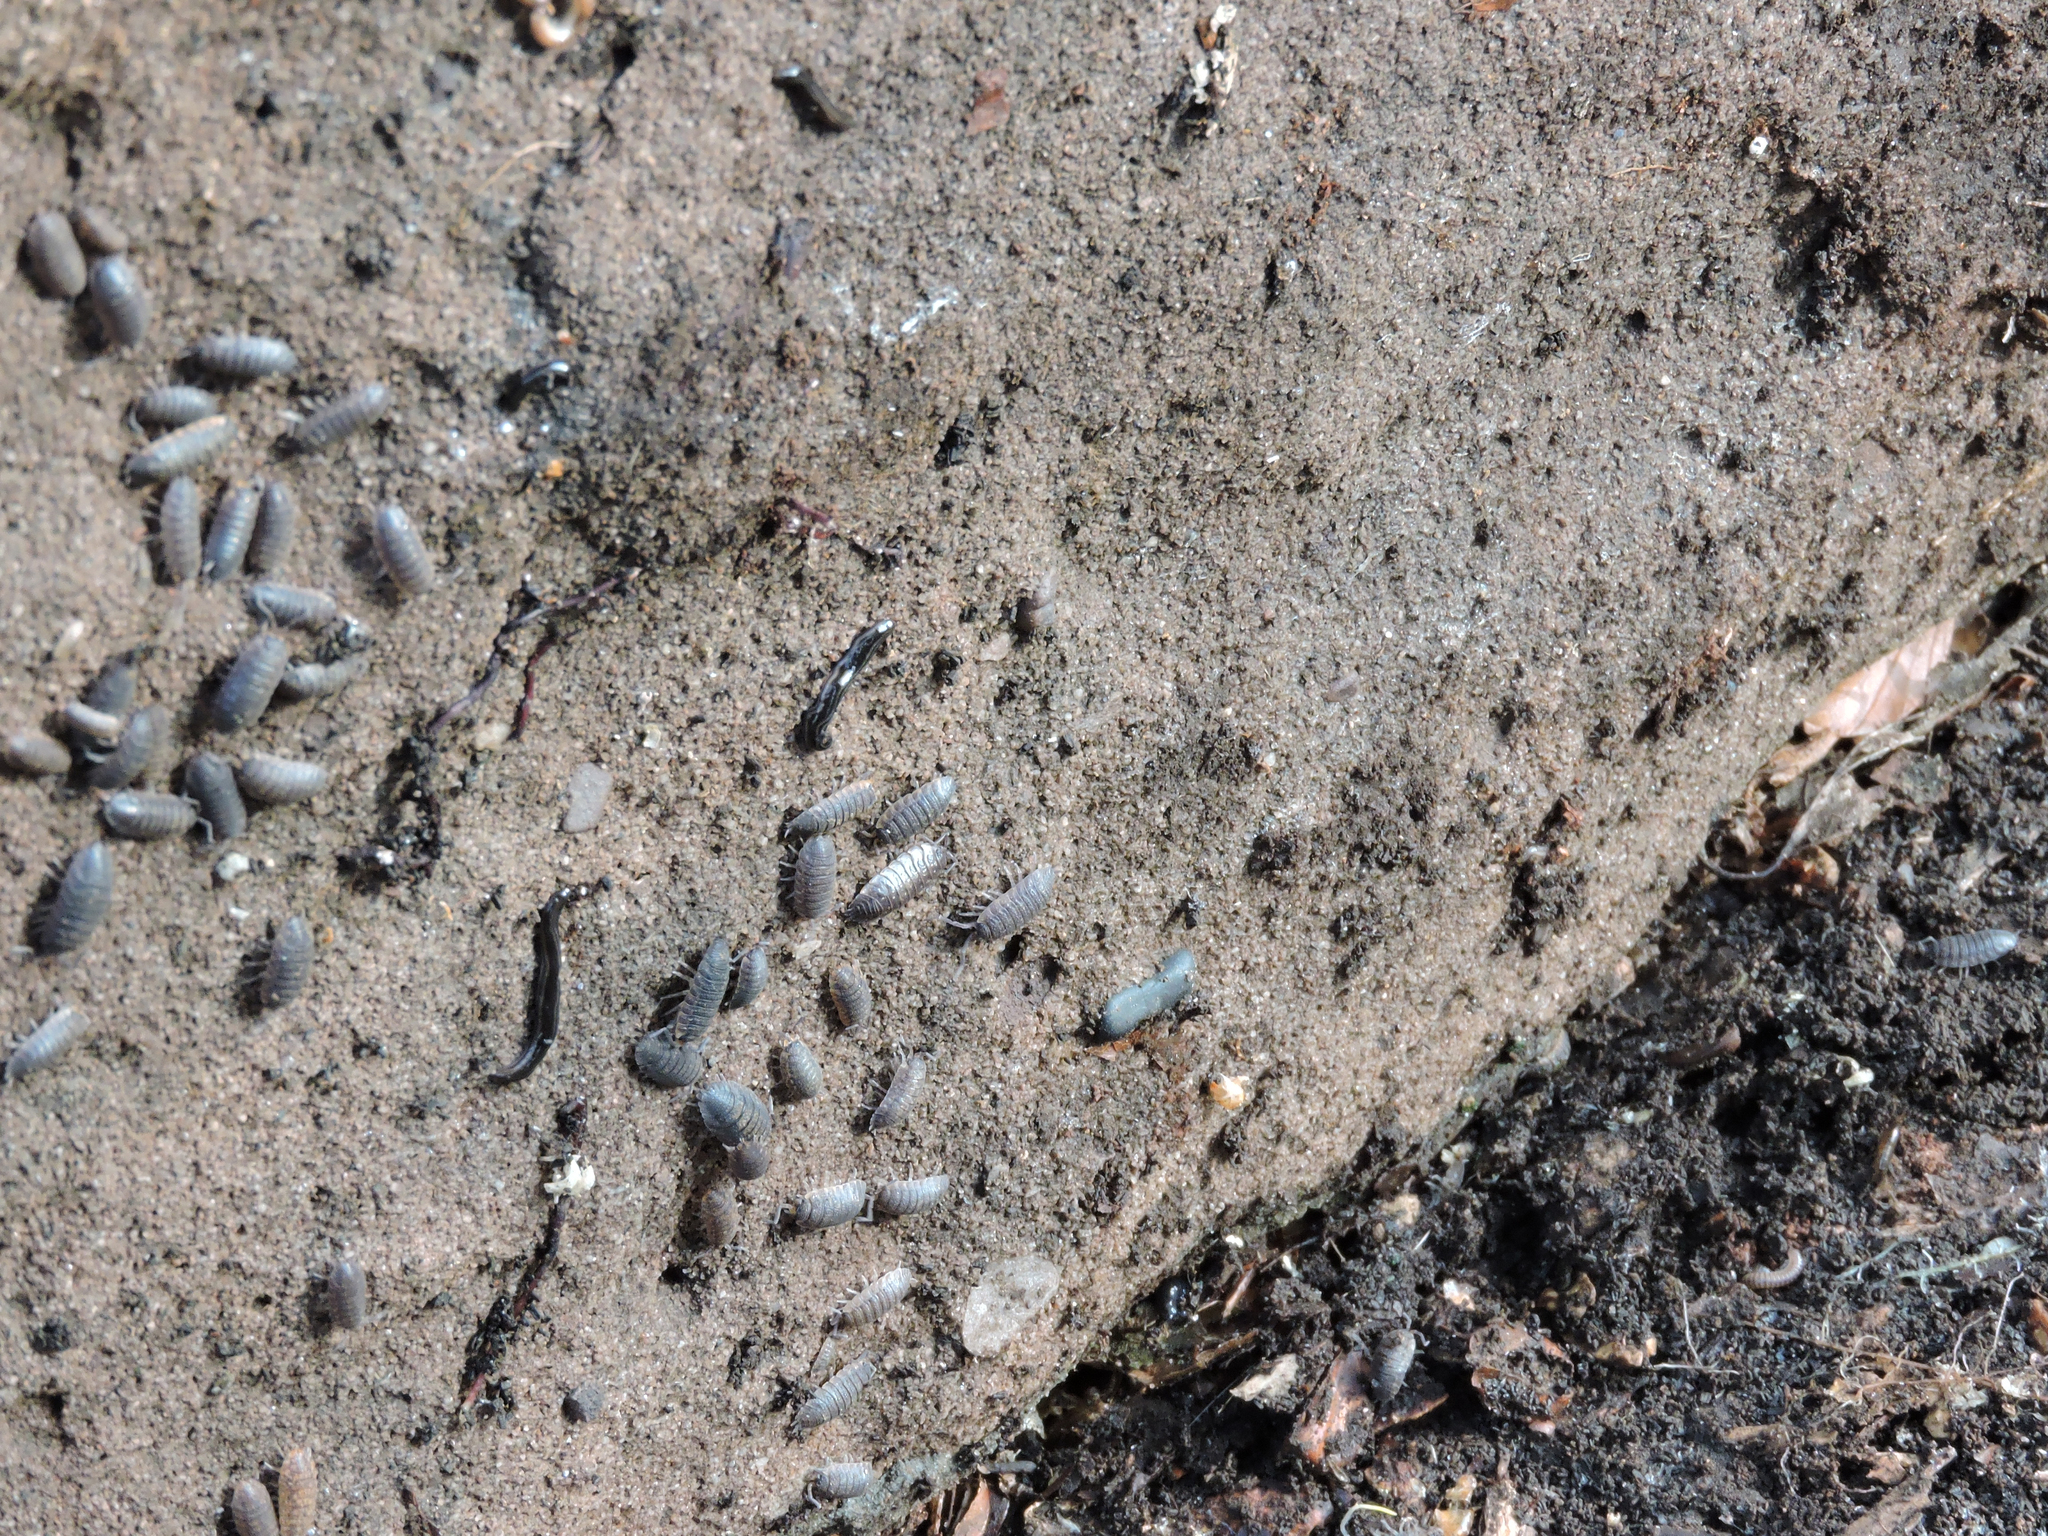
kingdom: Animalia
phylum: Arthropoda
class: Malacostraca
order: Isopoda
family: Porcellionidae
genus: Porcellio
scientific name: Porcellio scaber
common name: Common rough woodlouse
